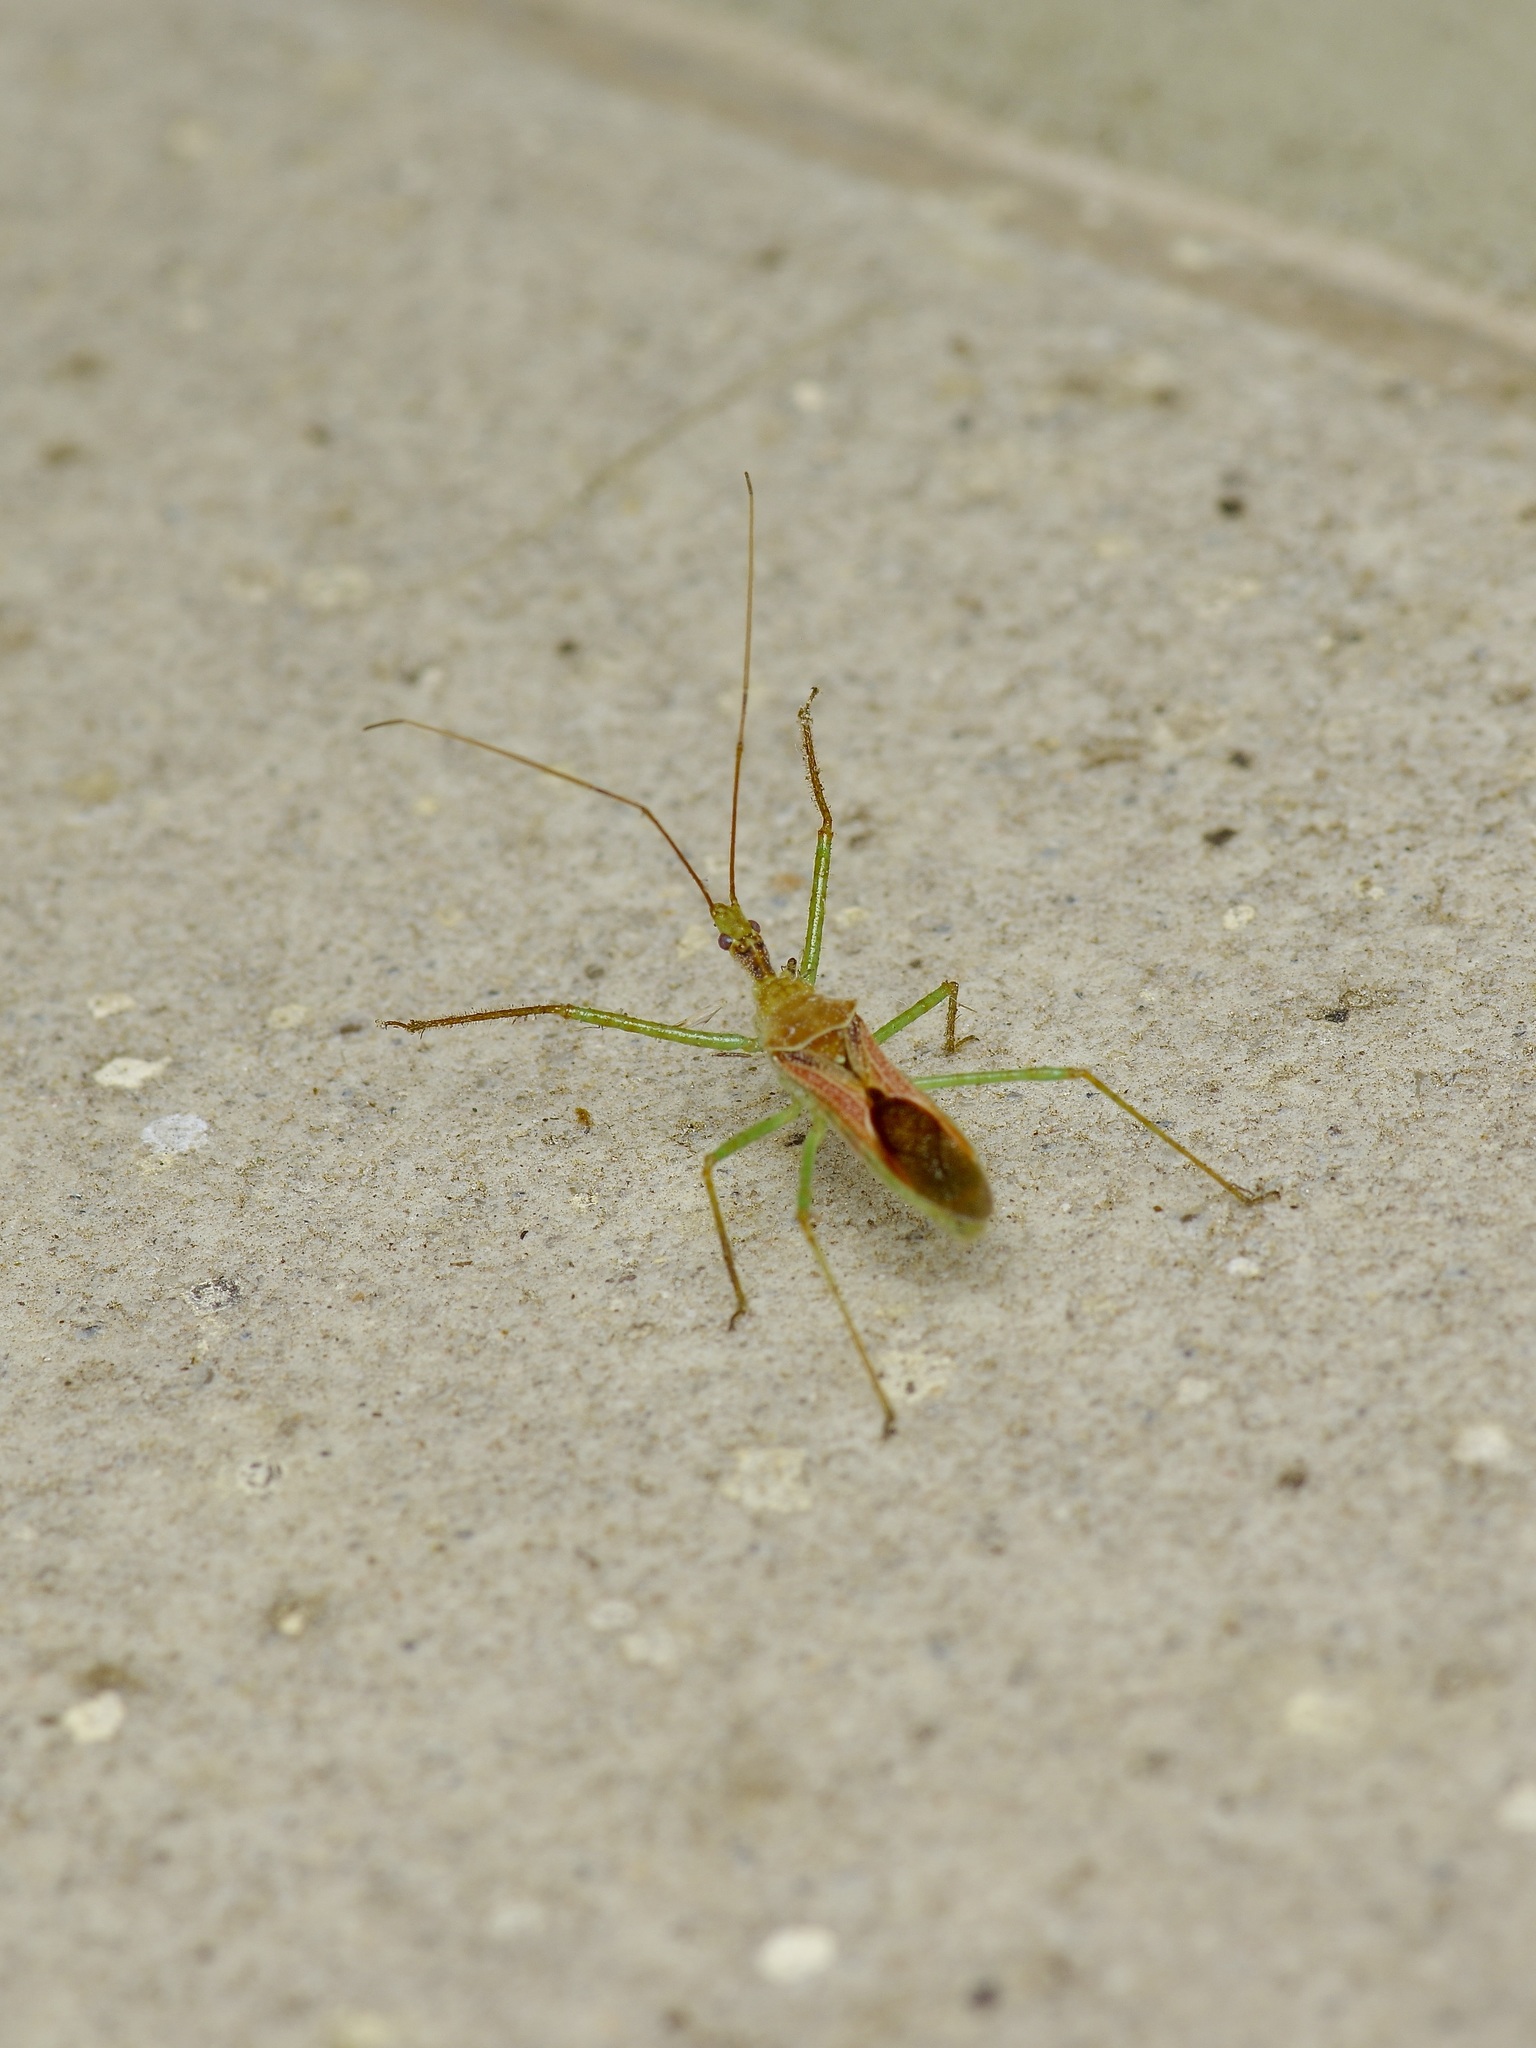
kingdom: Animalia
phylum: Arthropoda
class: Insecta
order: Hemiptera
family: Reduviidae
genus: Zelus
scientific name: Zelus renardii
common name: Assassin bug
